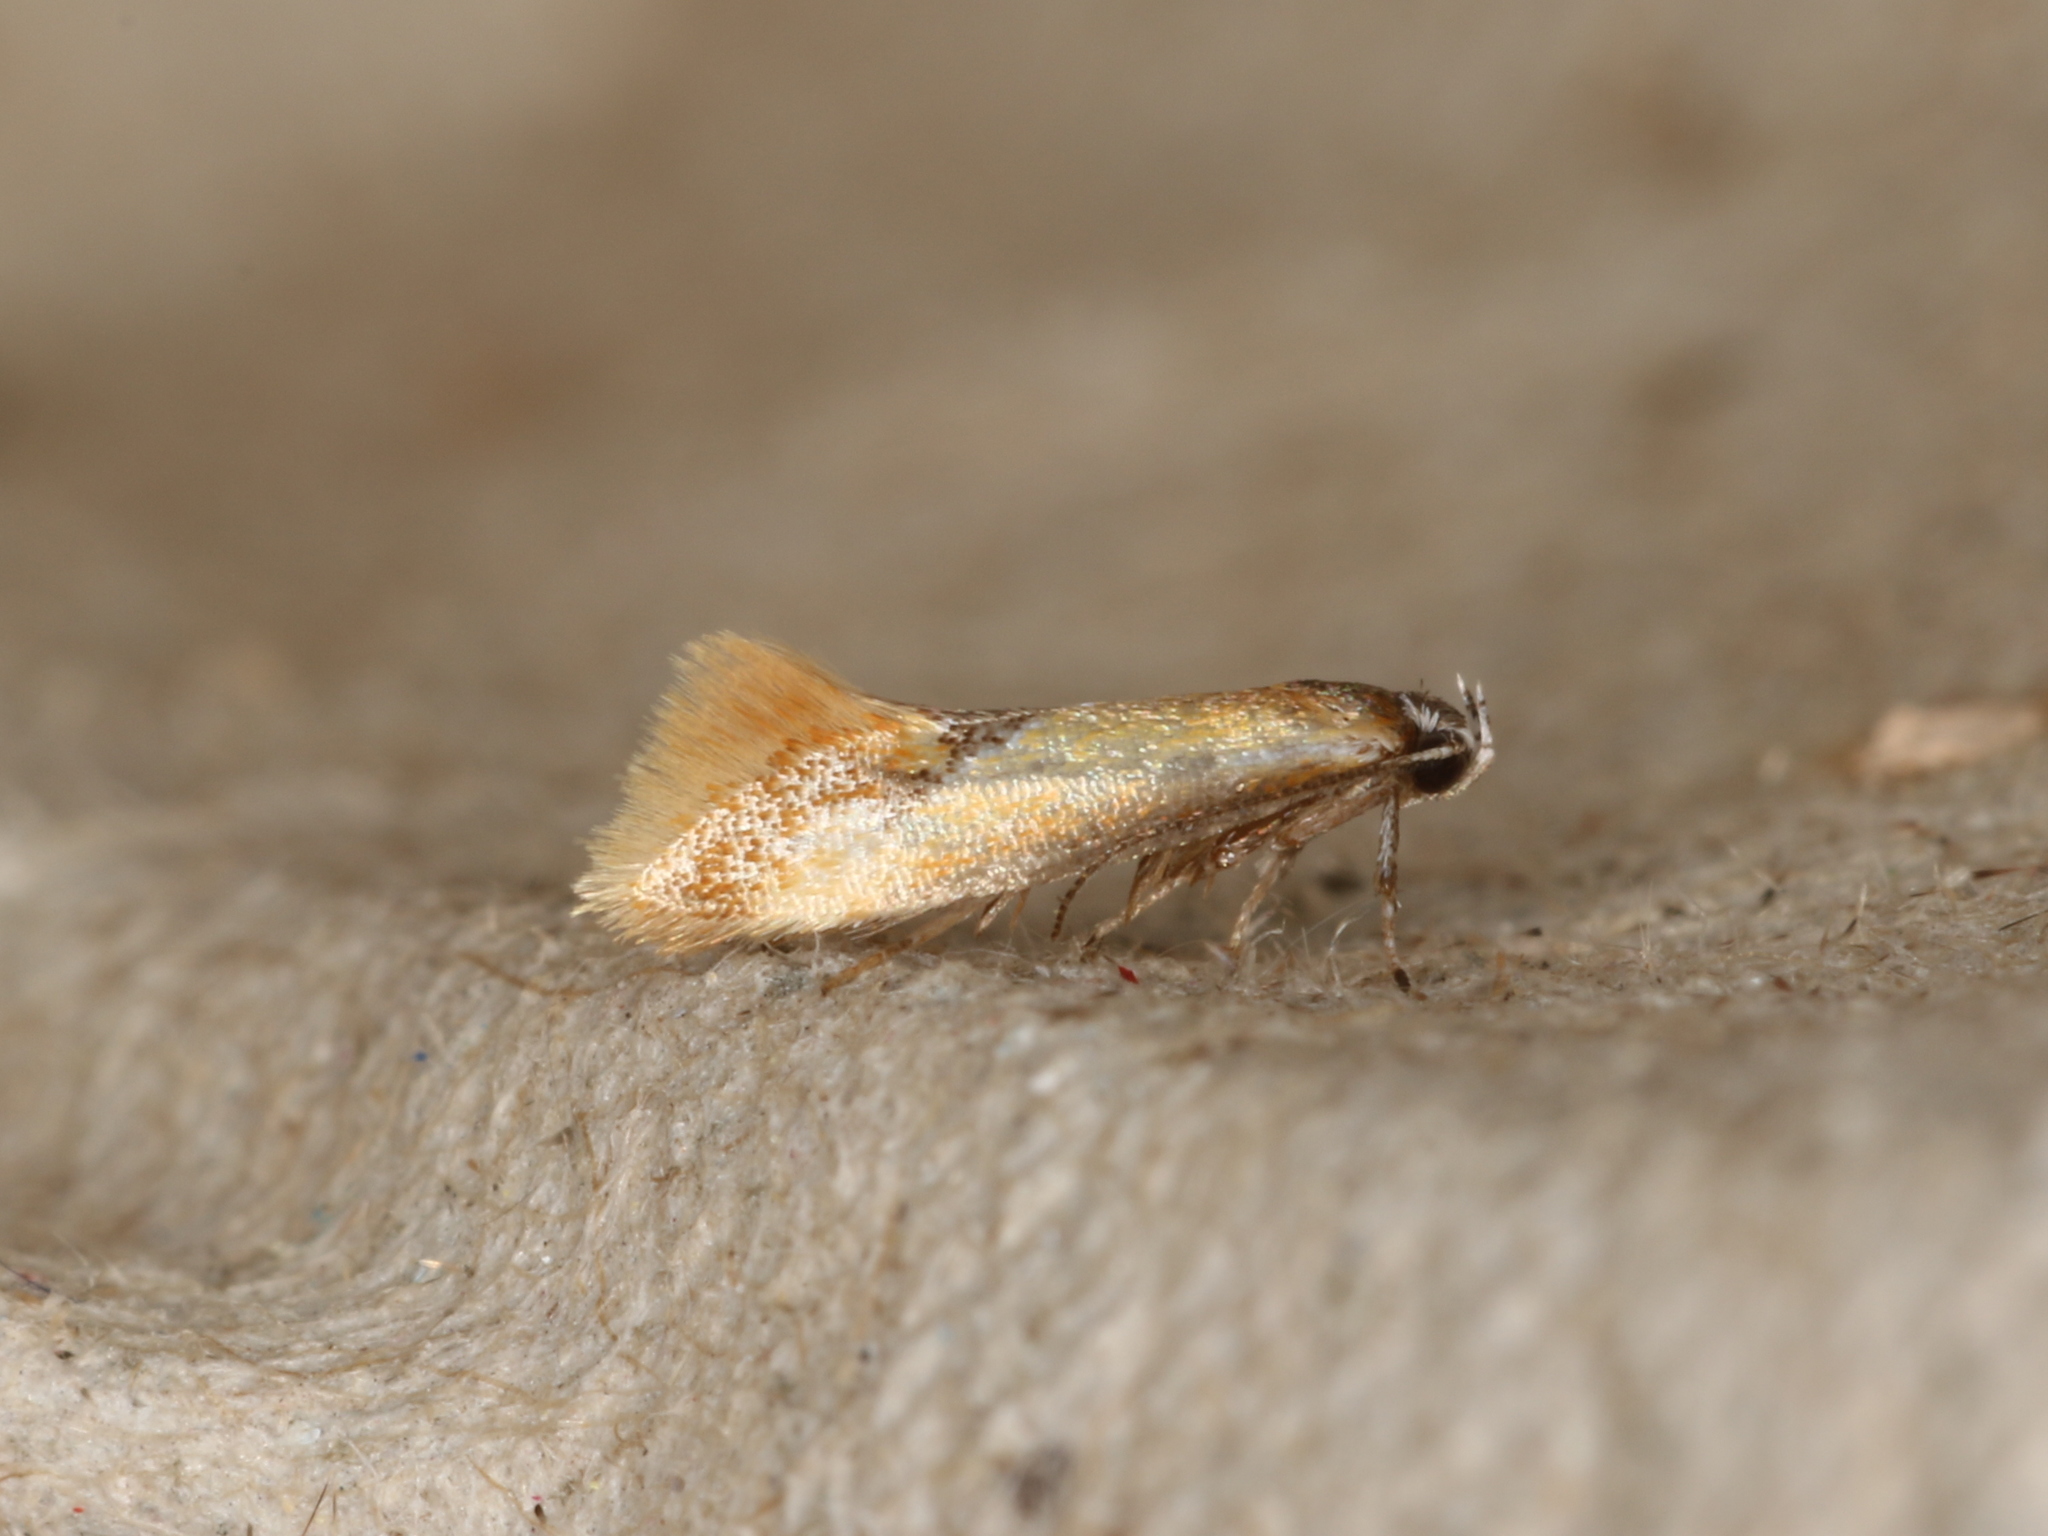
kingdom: Animalia
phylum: Arthropoda
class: Insecta
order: Lepidoptera
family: Oecophoridae
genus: Batia
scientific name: Batia lunaris
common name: Moth
